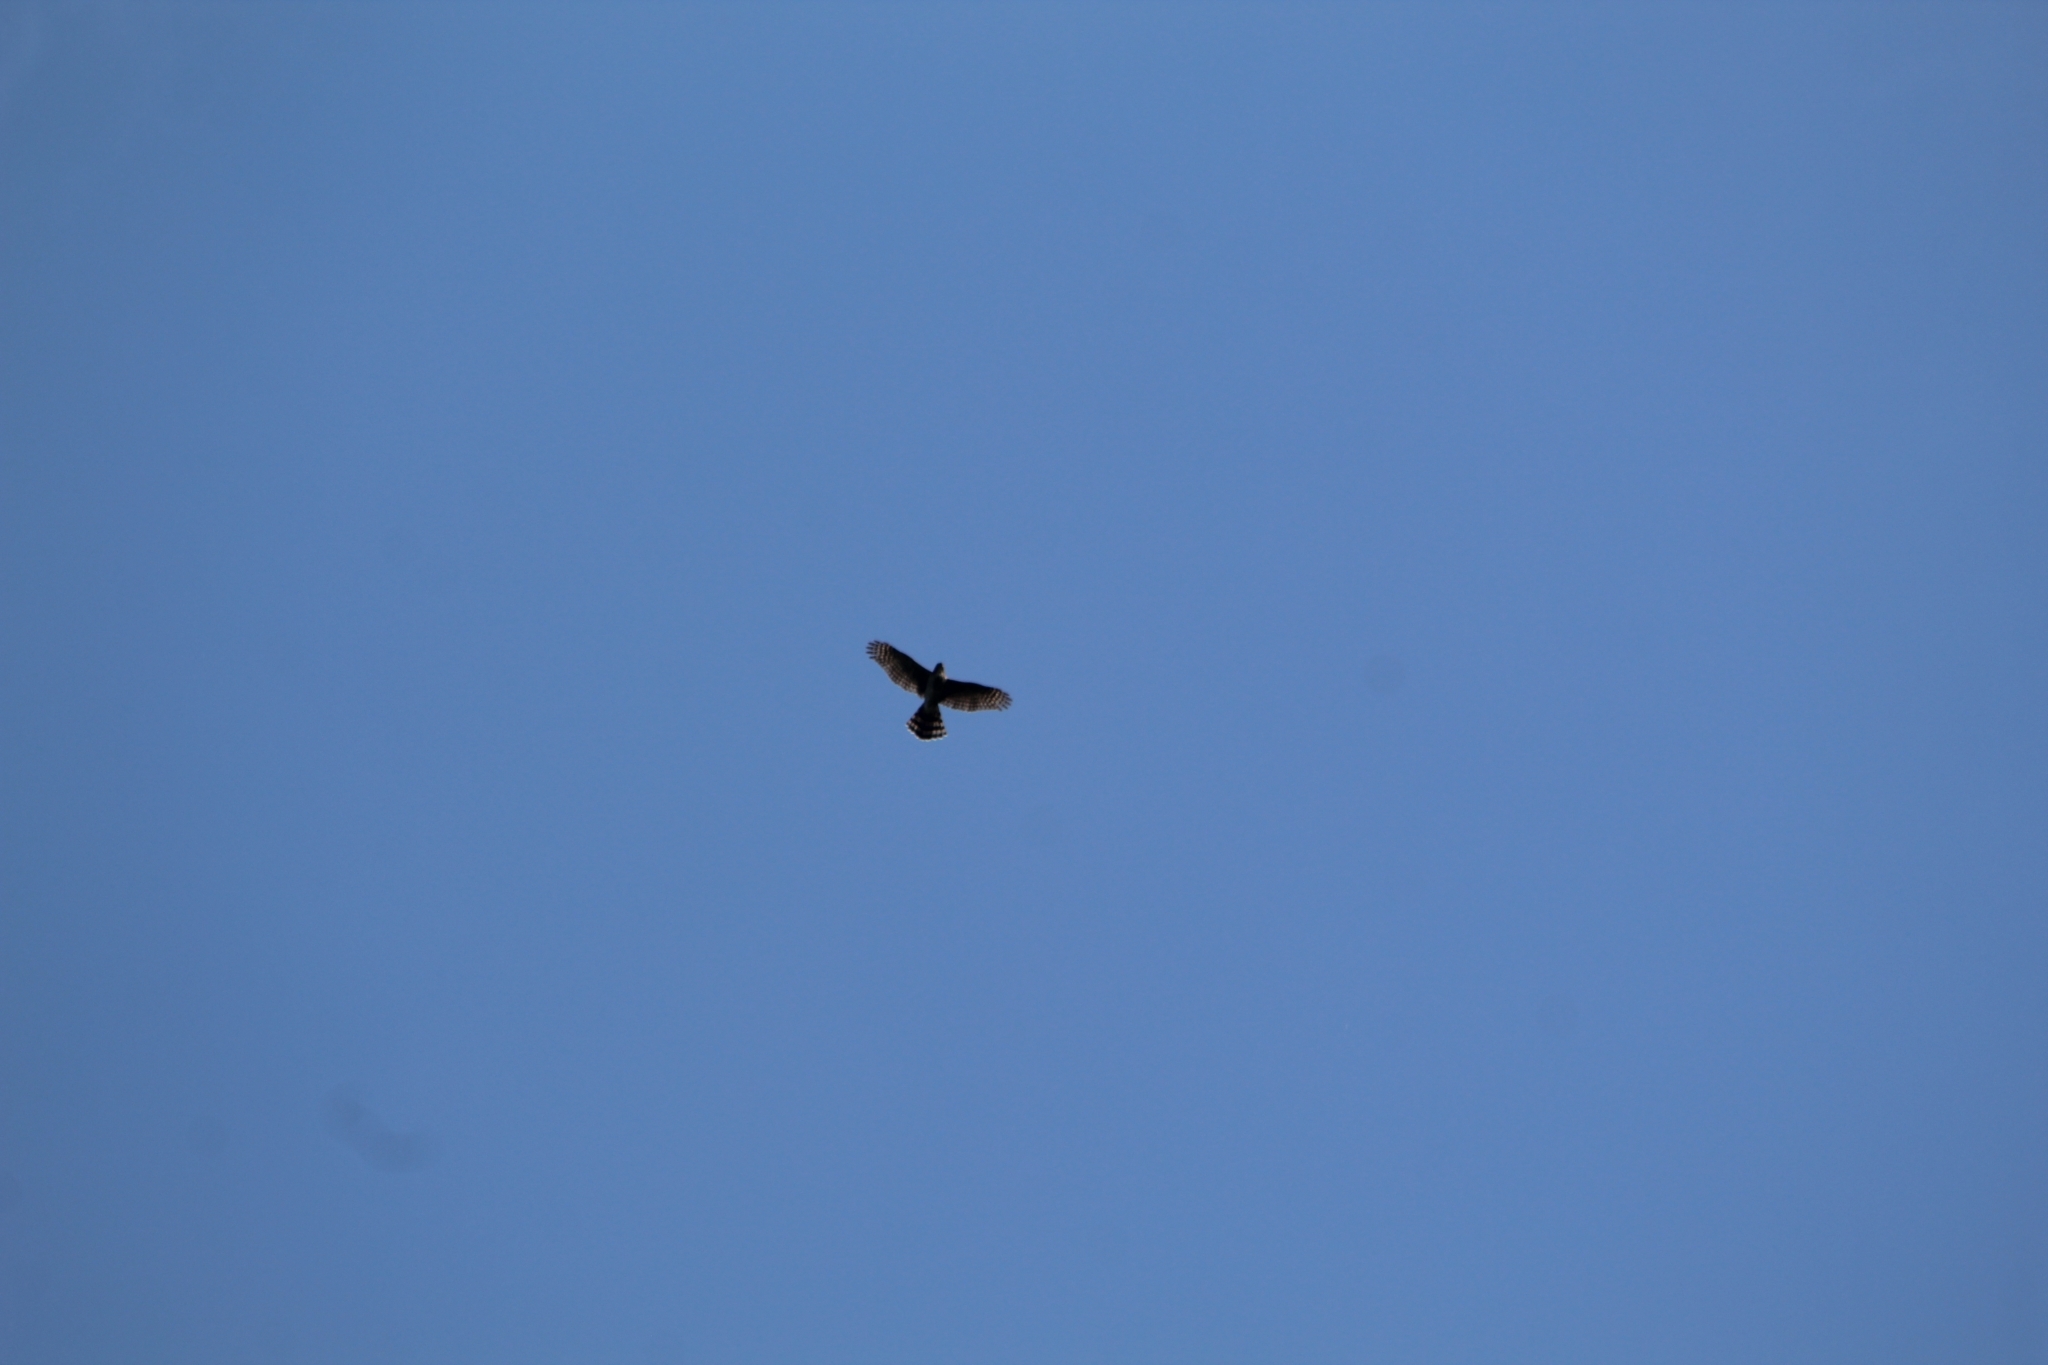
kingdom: Animalia
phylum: Chordata
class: Aves
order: Accipitriformes
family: Accipitridae
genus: Accipiter
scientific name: Accipiter cooperii
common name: Cooper's hawk
